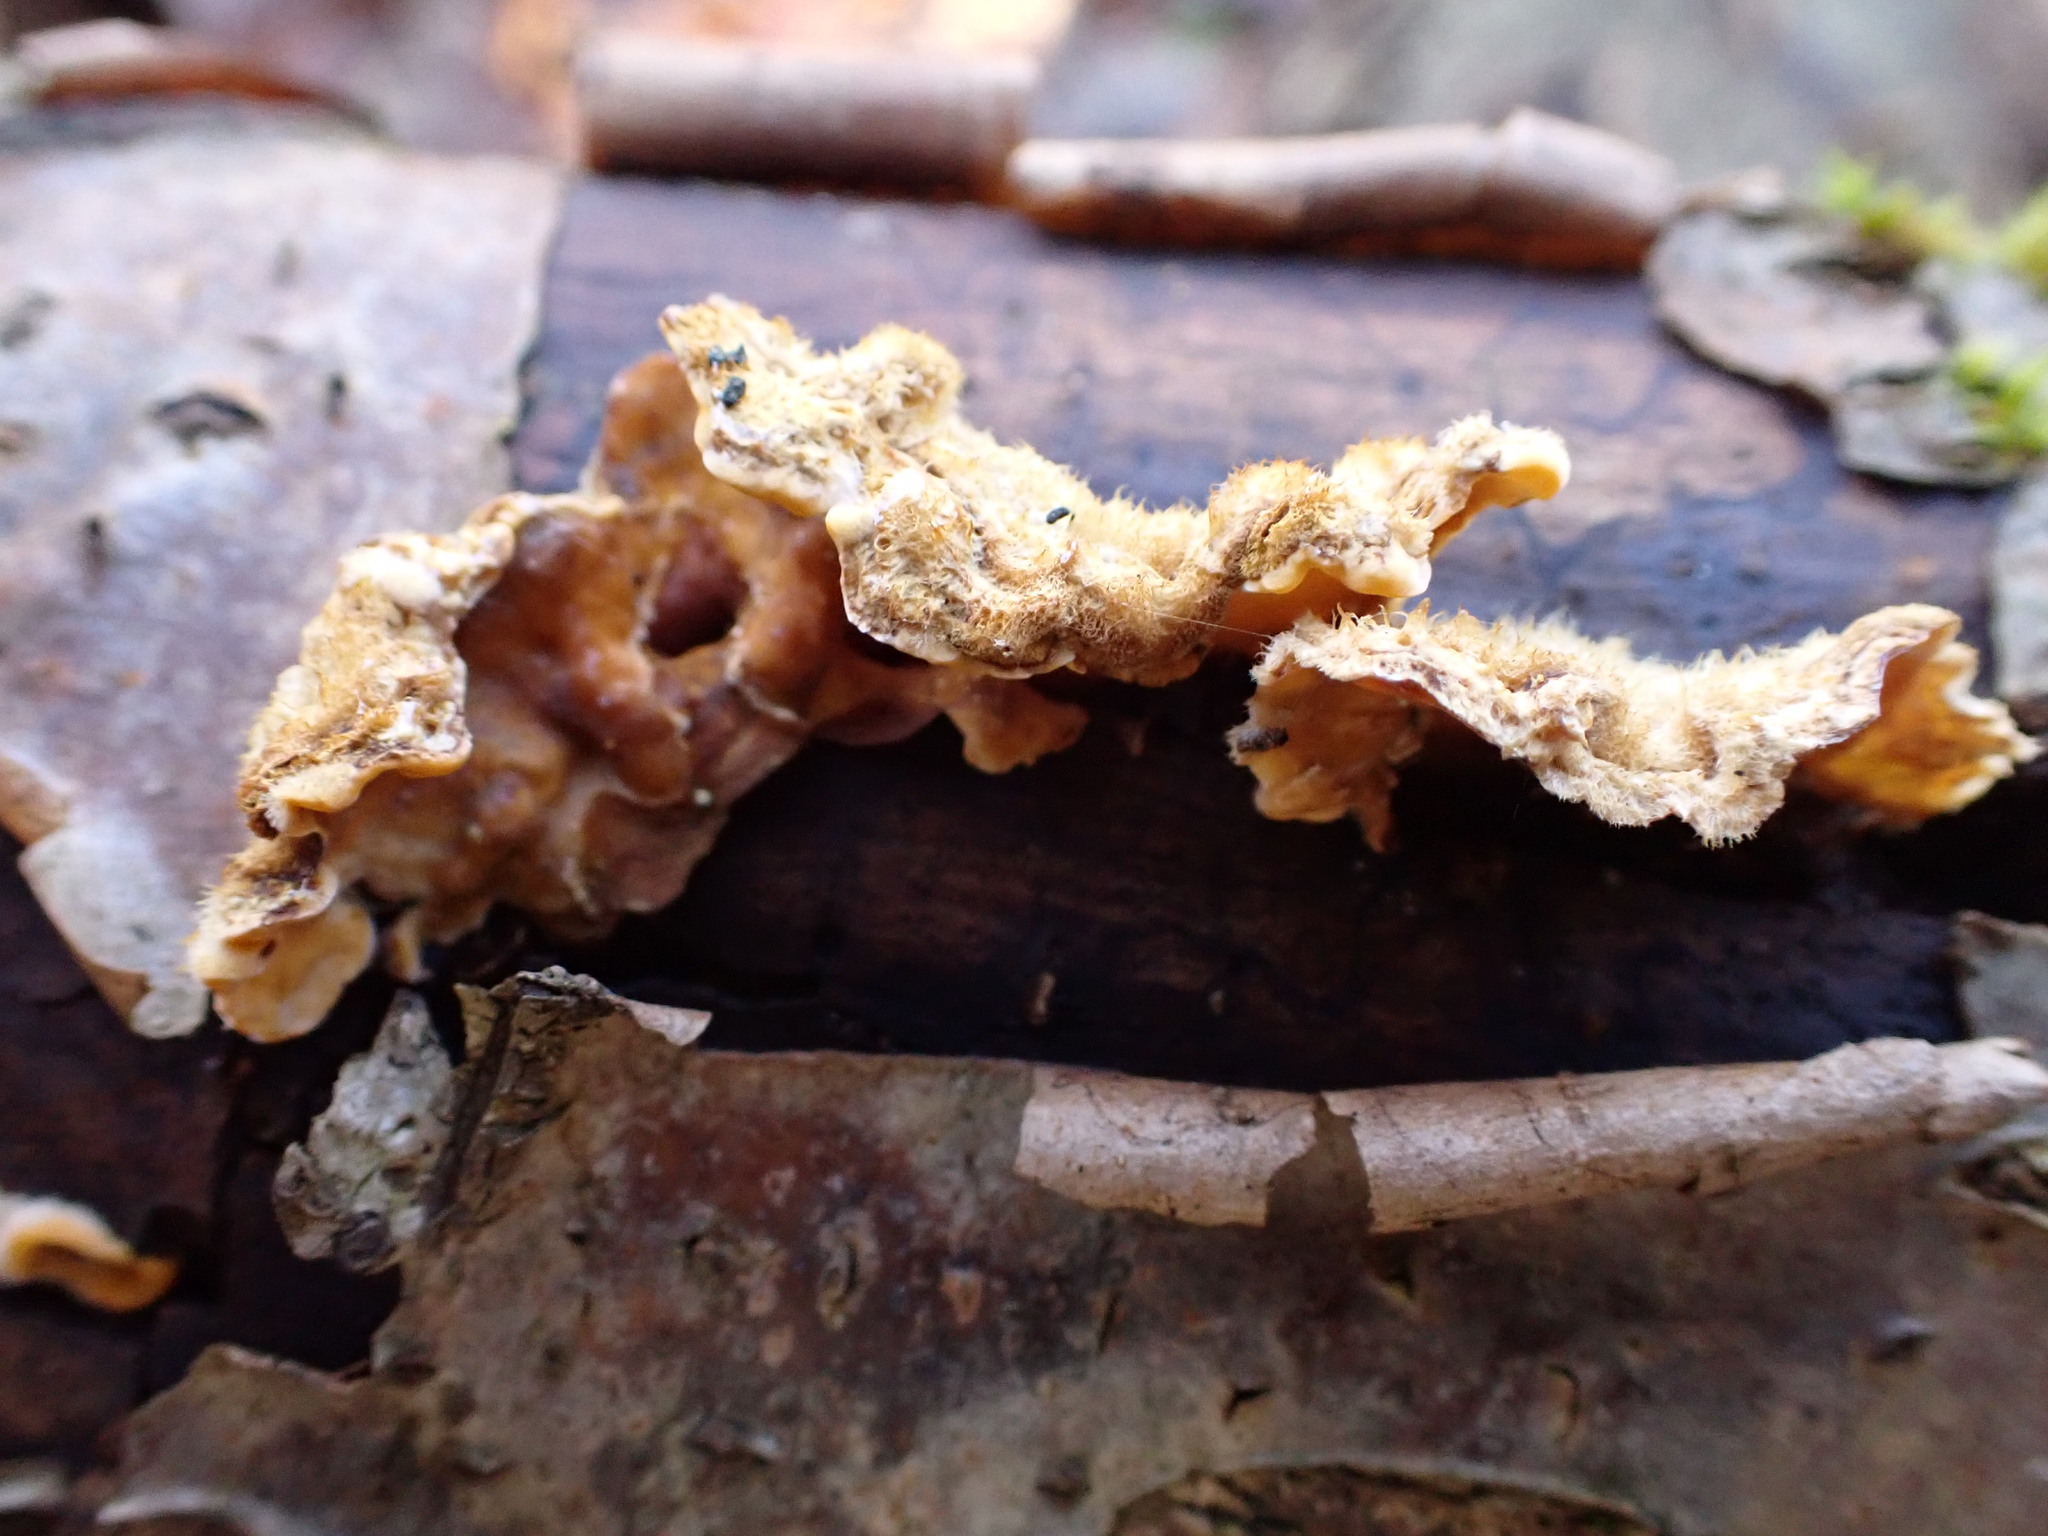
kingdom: Fungi
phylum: Basidiomycota
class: Agaricomycetes
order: Russulales
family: Stereaceae
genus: Stereum
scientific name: Stereum hirsutum
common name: Hairy curtain crust
